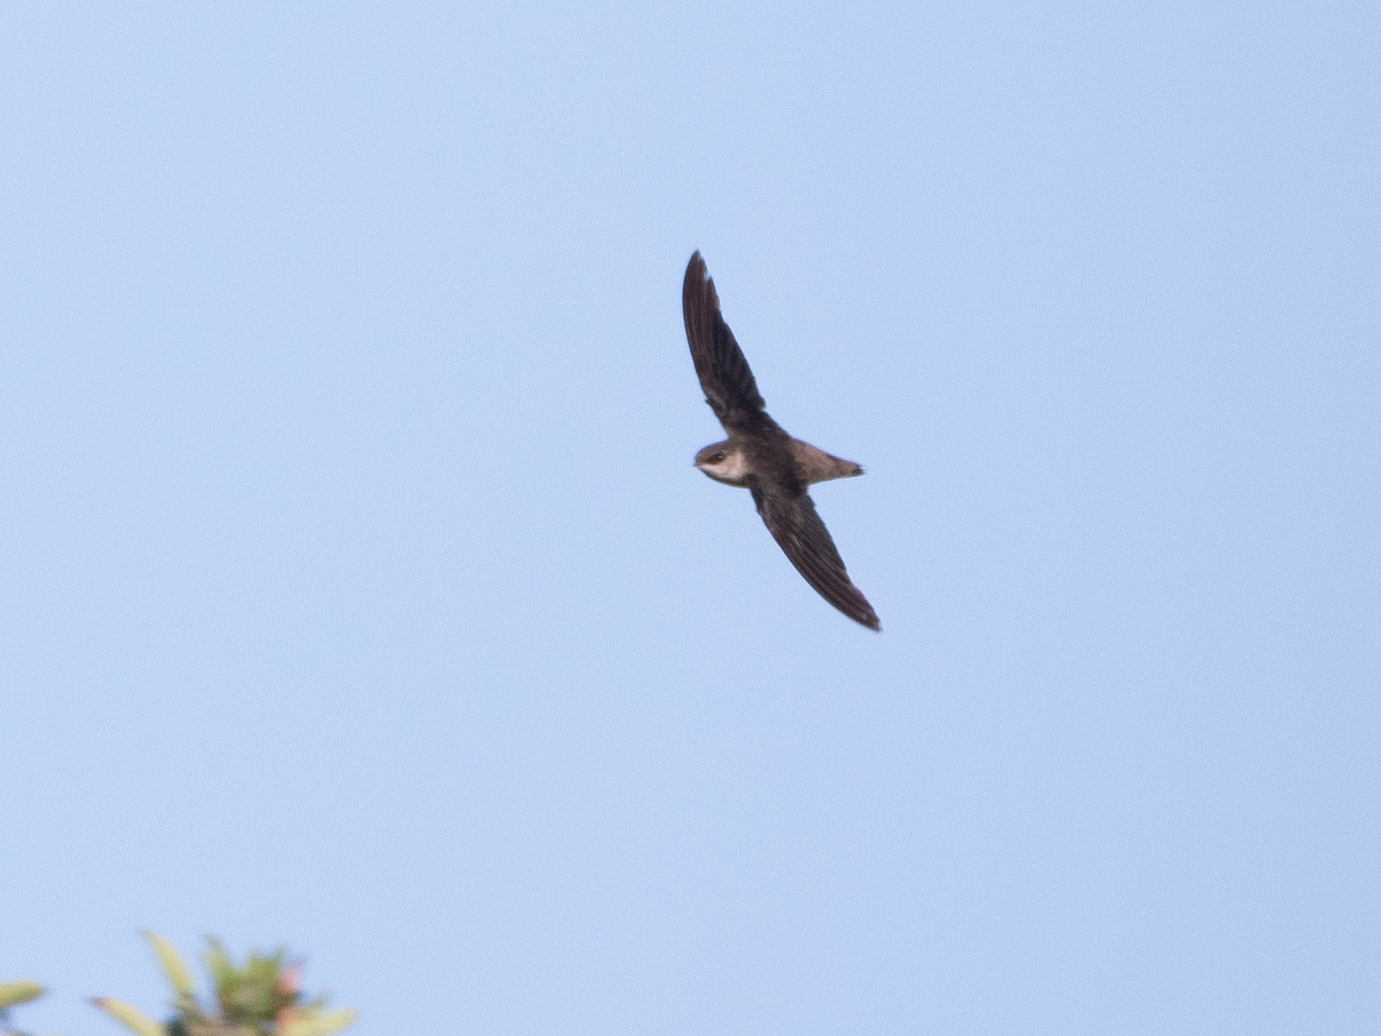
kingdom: Animalia
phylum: Chordata
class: Aves
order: Apodiformes
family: Apodidae
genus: Chaetura
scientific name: Chaetura vauxi
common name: Vaux's swift
